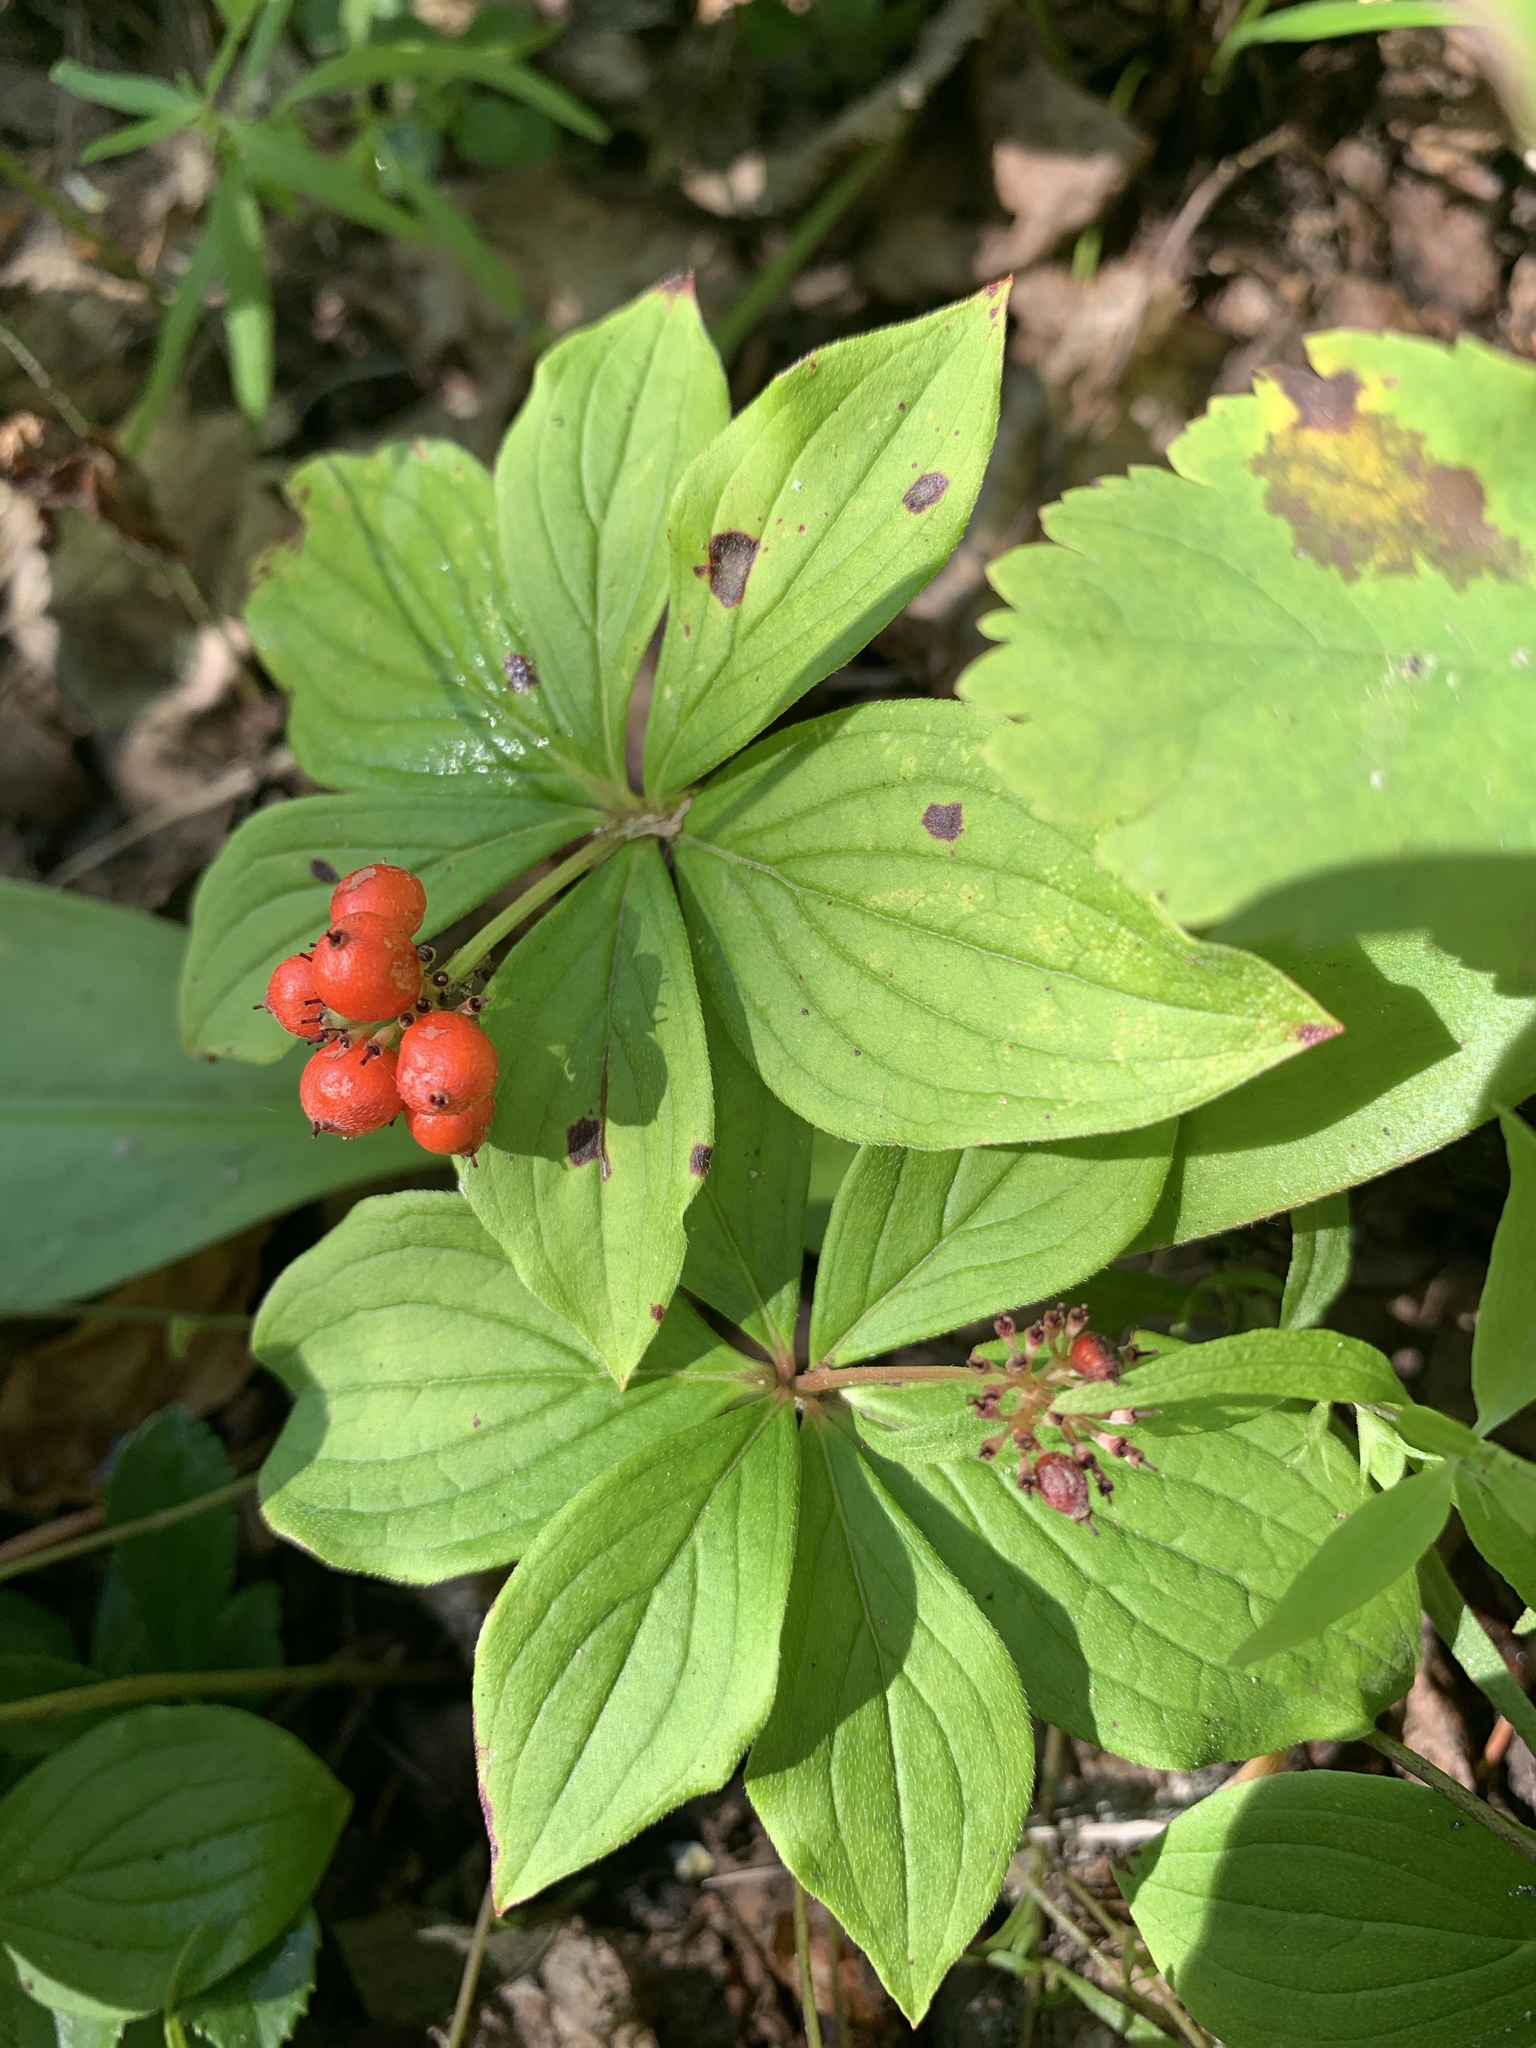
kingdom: Plantae
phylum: Tracheophyta
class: Magnoliopsida
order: Cornales
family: Cornaceae
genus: Cornus
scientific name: Cornus canadensis
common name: Creeping dogwood
